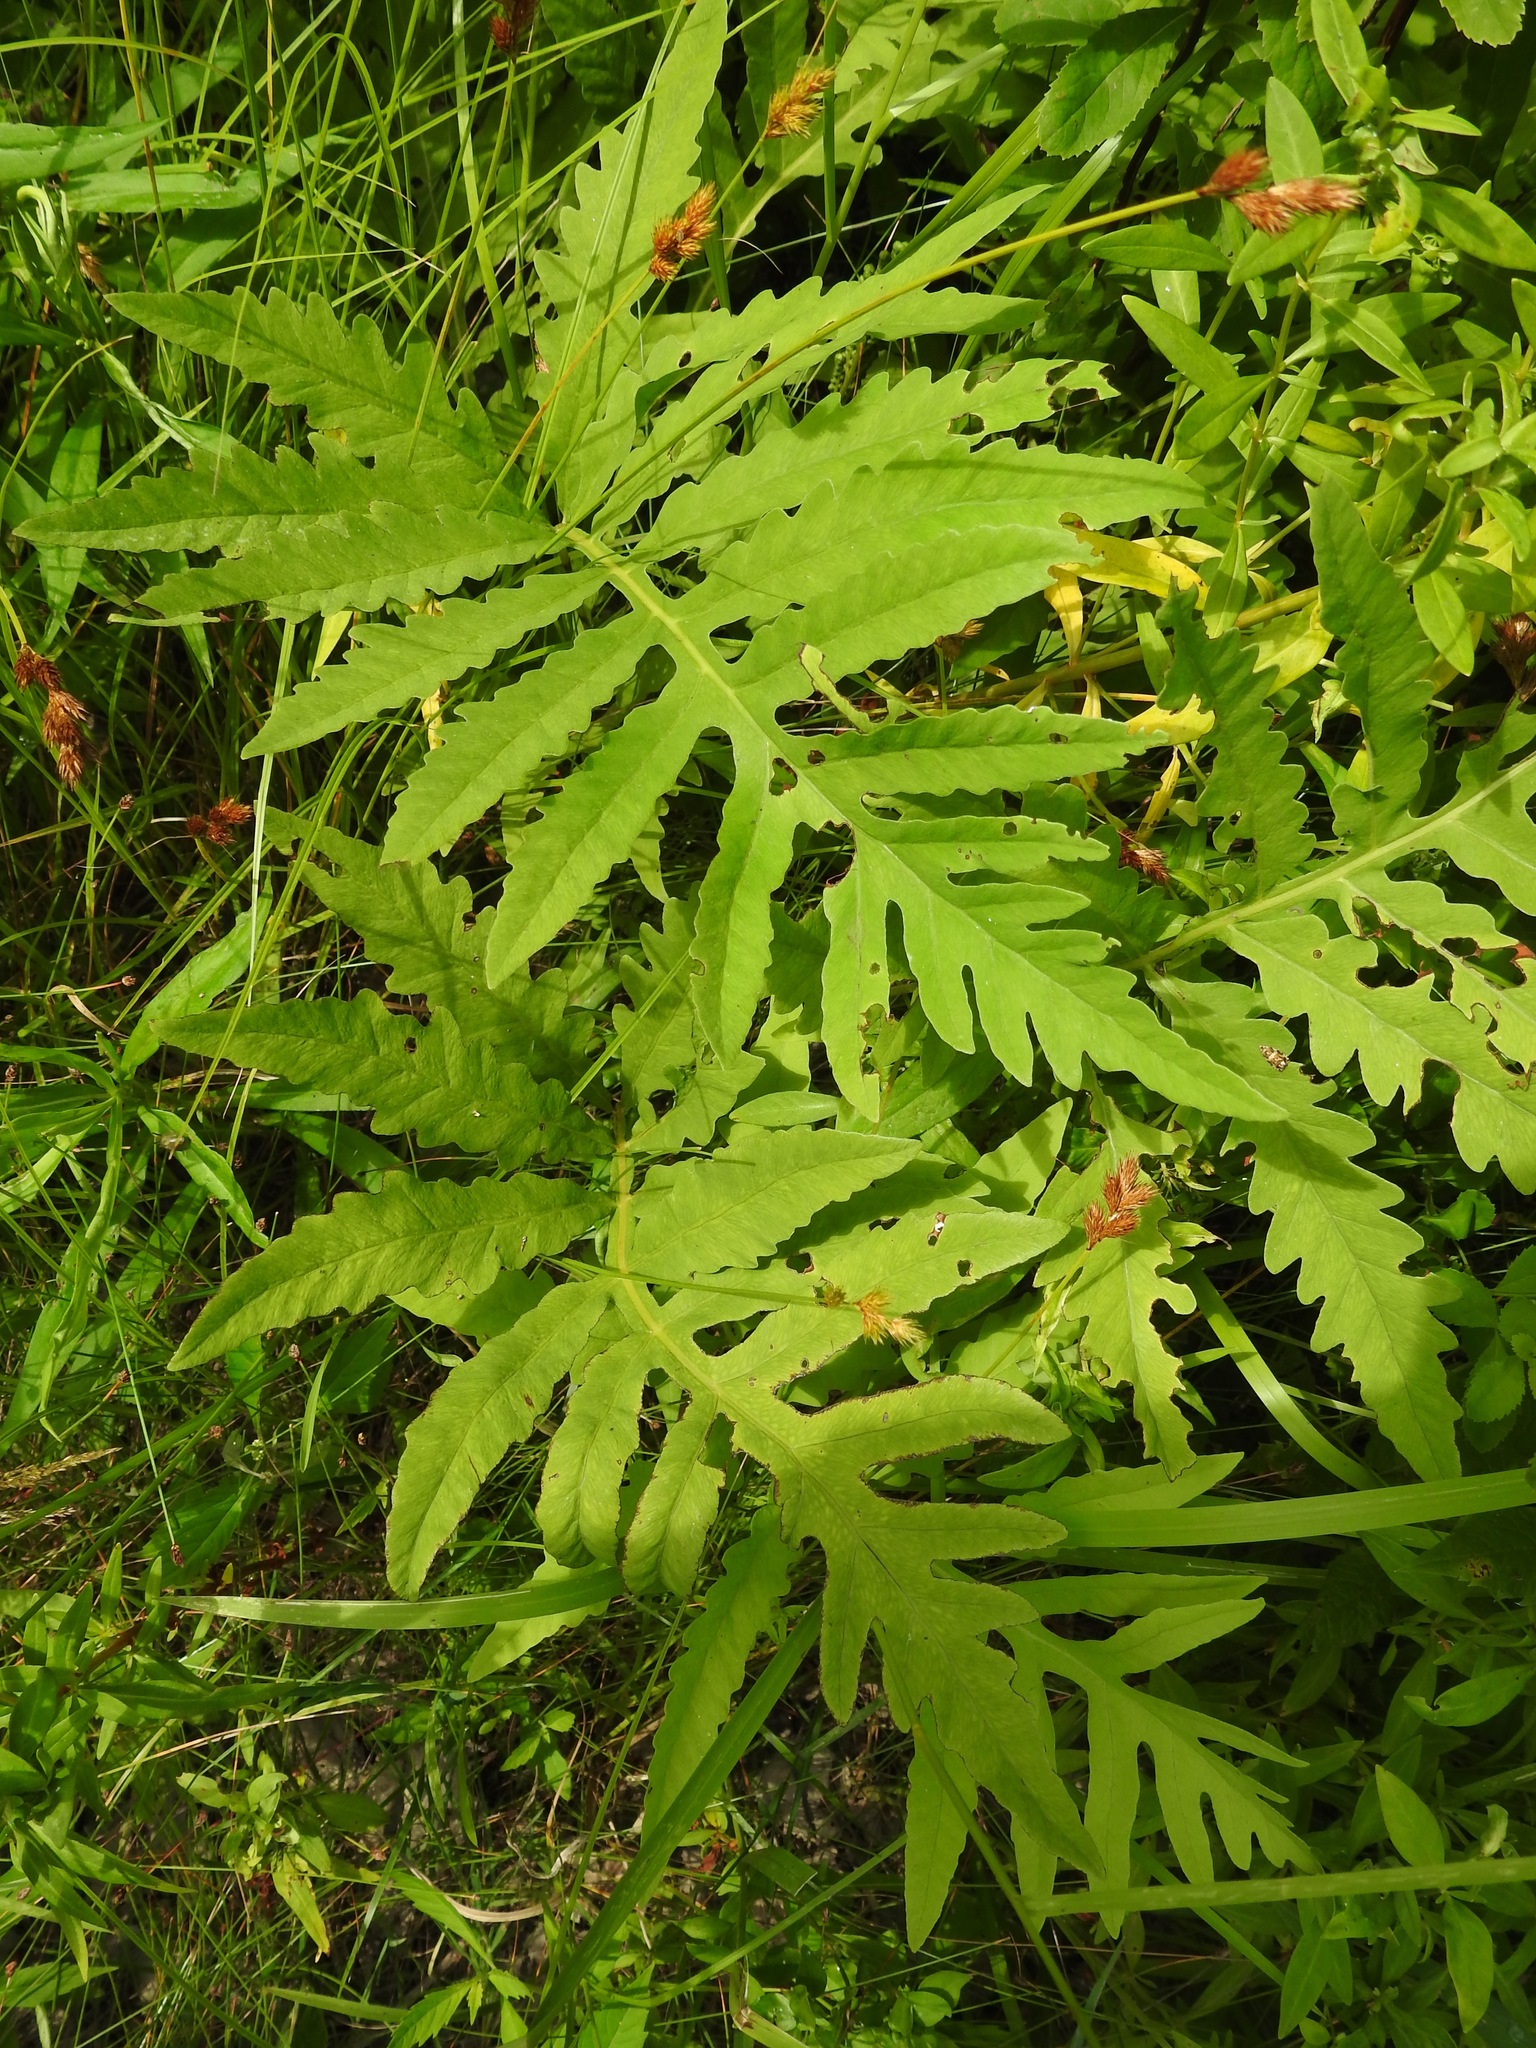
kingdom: Plantae
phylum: Tracheophyta
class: Polypodiopsida
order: Polypodiales
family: Onocleaceae
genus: Onoclea
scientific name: Onoclea sensibilis
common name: Sensitive fern
